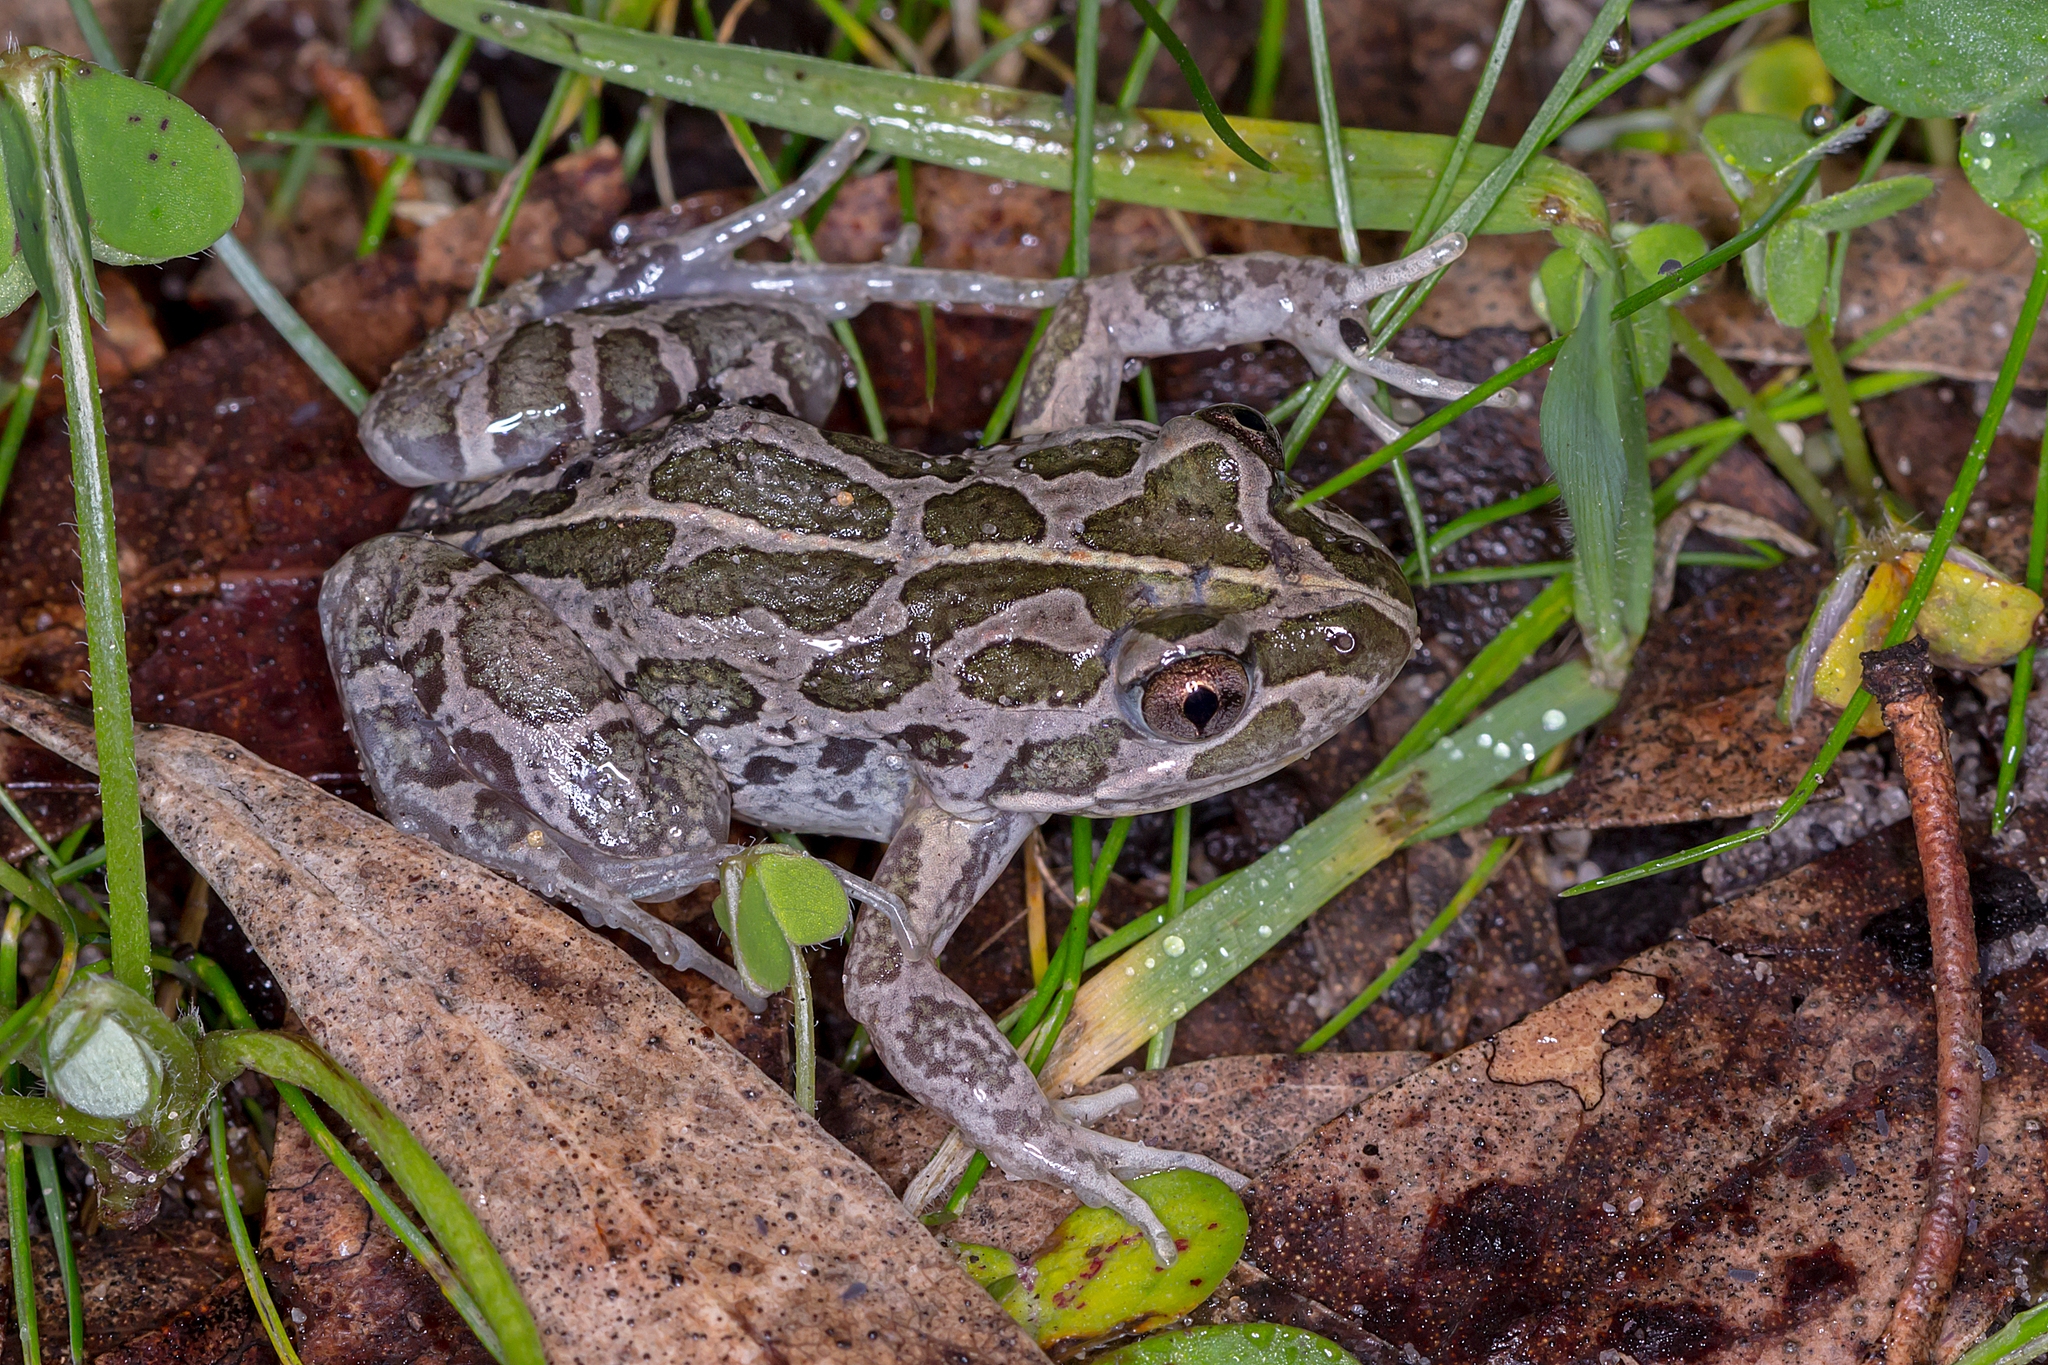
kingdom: Animalia
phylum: Chordata
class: Amphibia
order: Anura
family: Limnodynastidae
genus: Limnodynastes
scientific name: Limnodynastes tasmaniensis
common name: Spotted marsh frog
